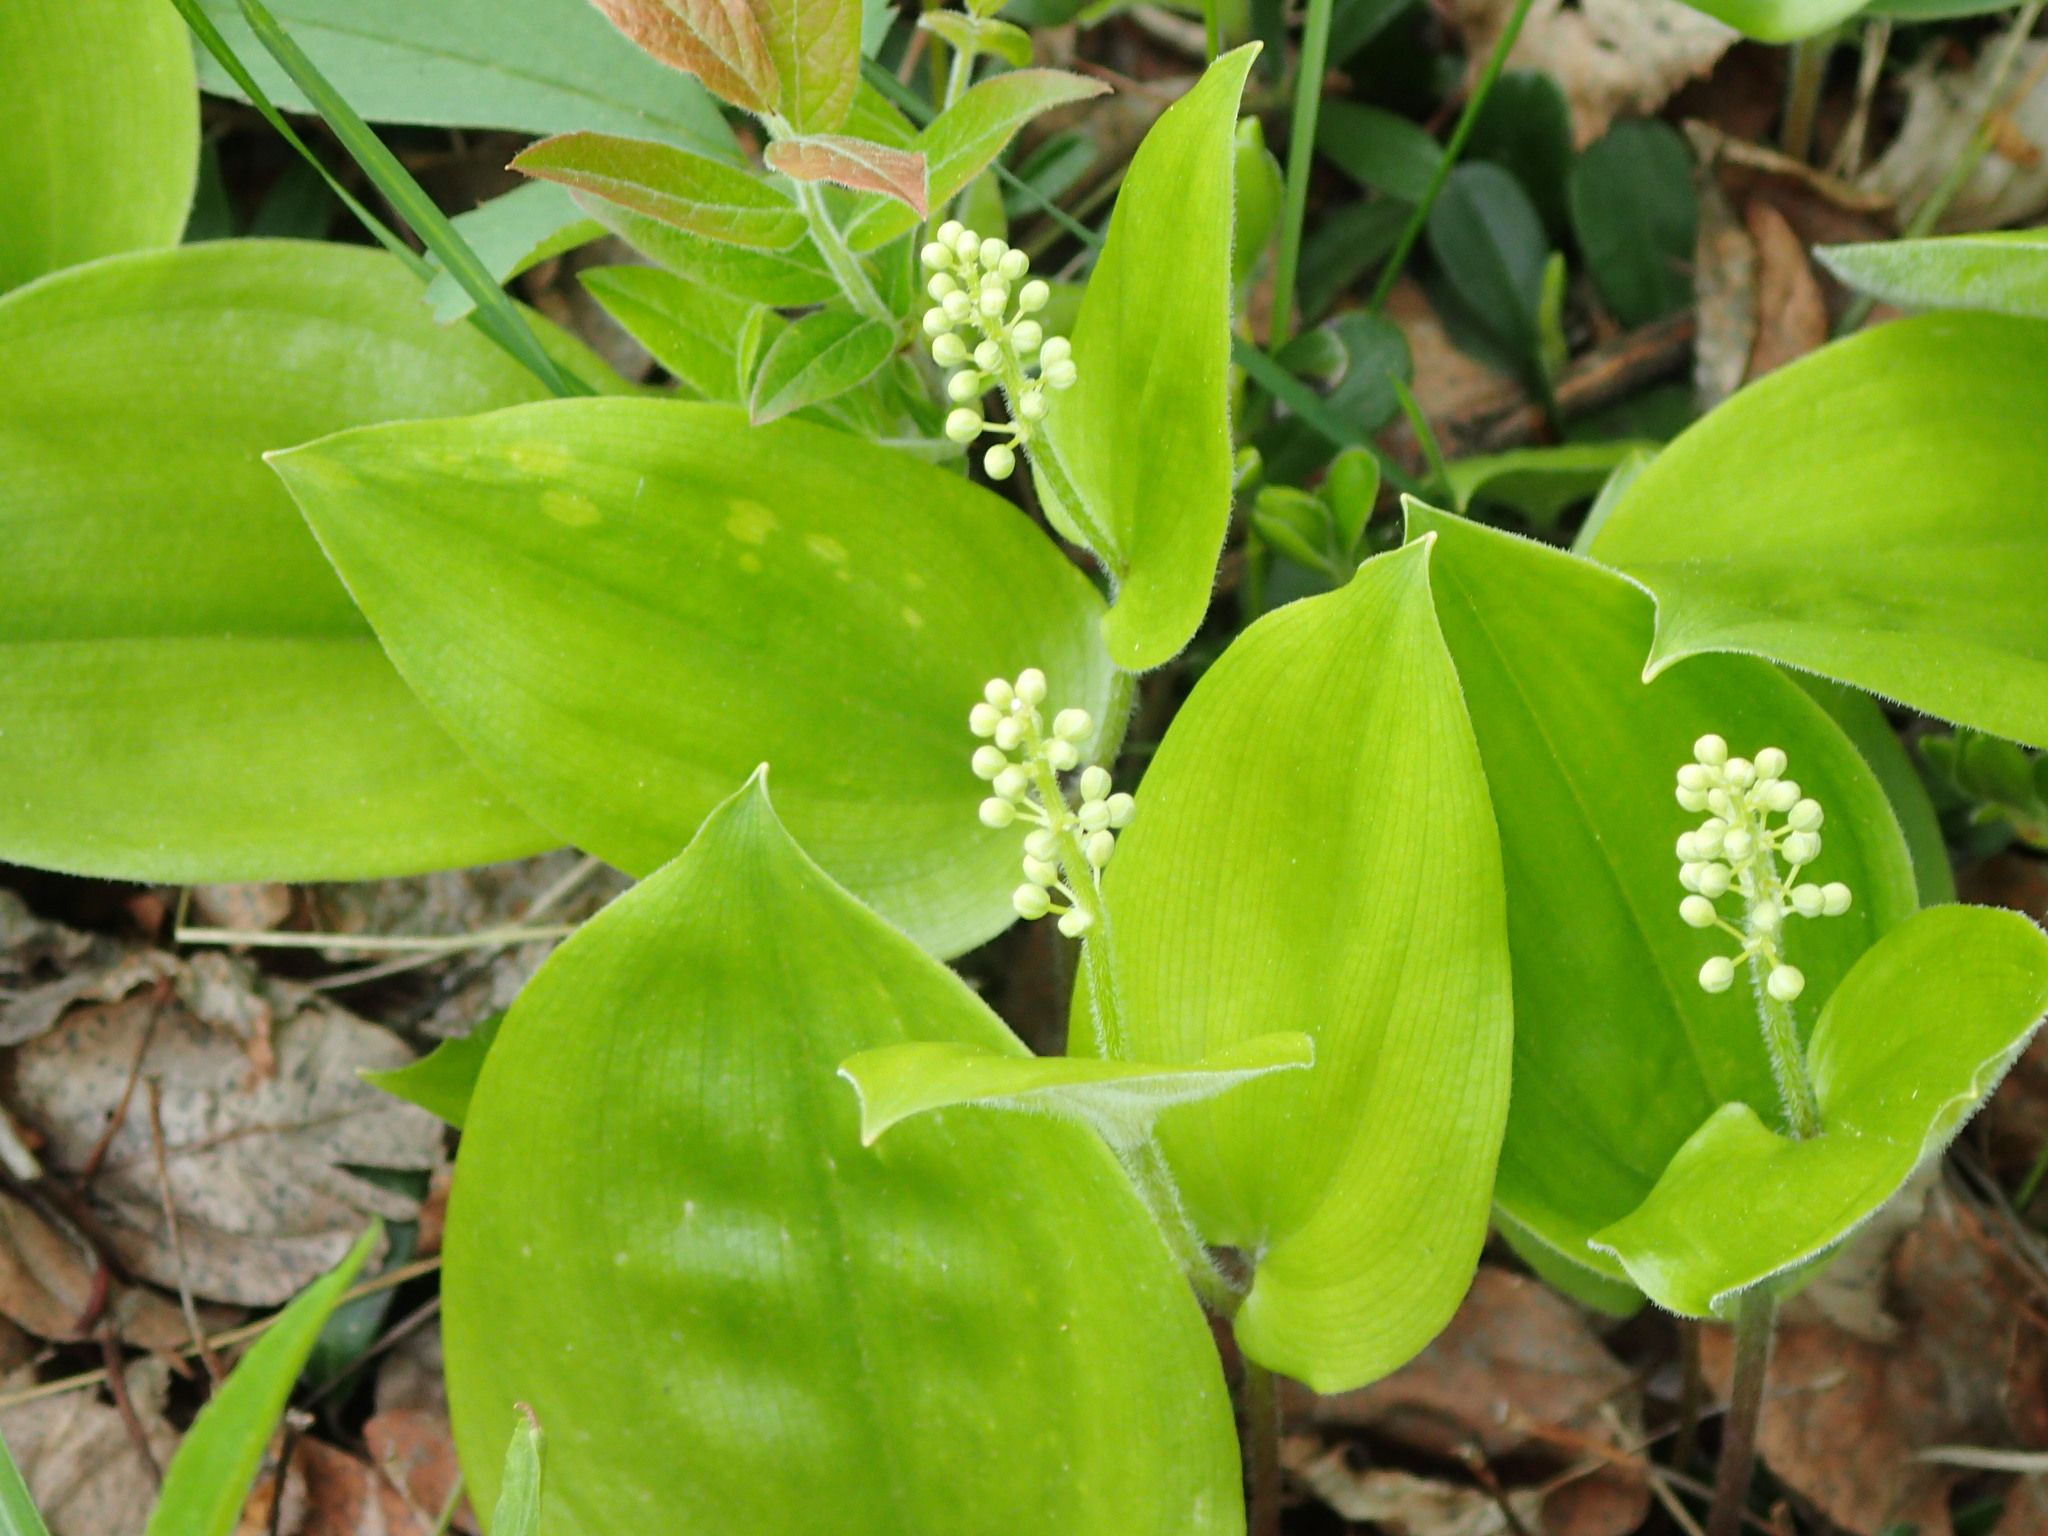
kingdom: Plantae
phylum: Tracheophyta
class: Liliopsida
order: Asparagales
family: Asparagaceae
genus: Maianthemum
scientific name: Maianthemum canadense
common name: False lily-of-the-valley
